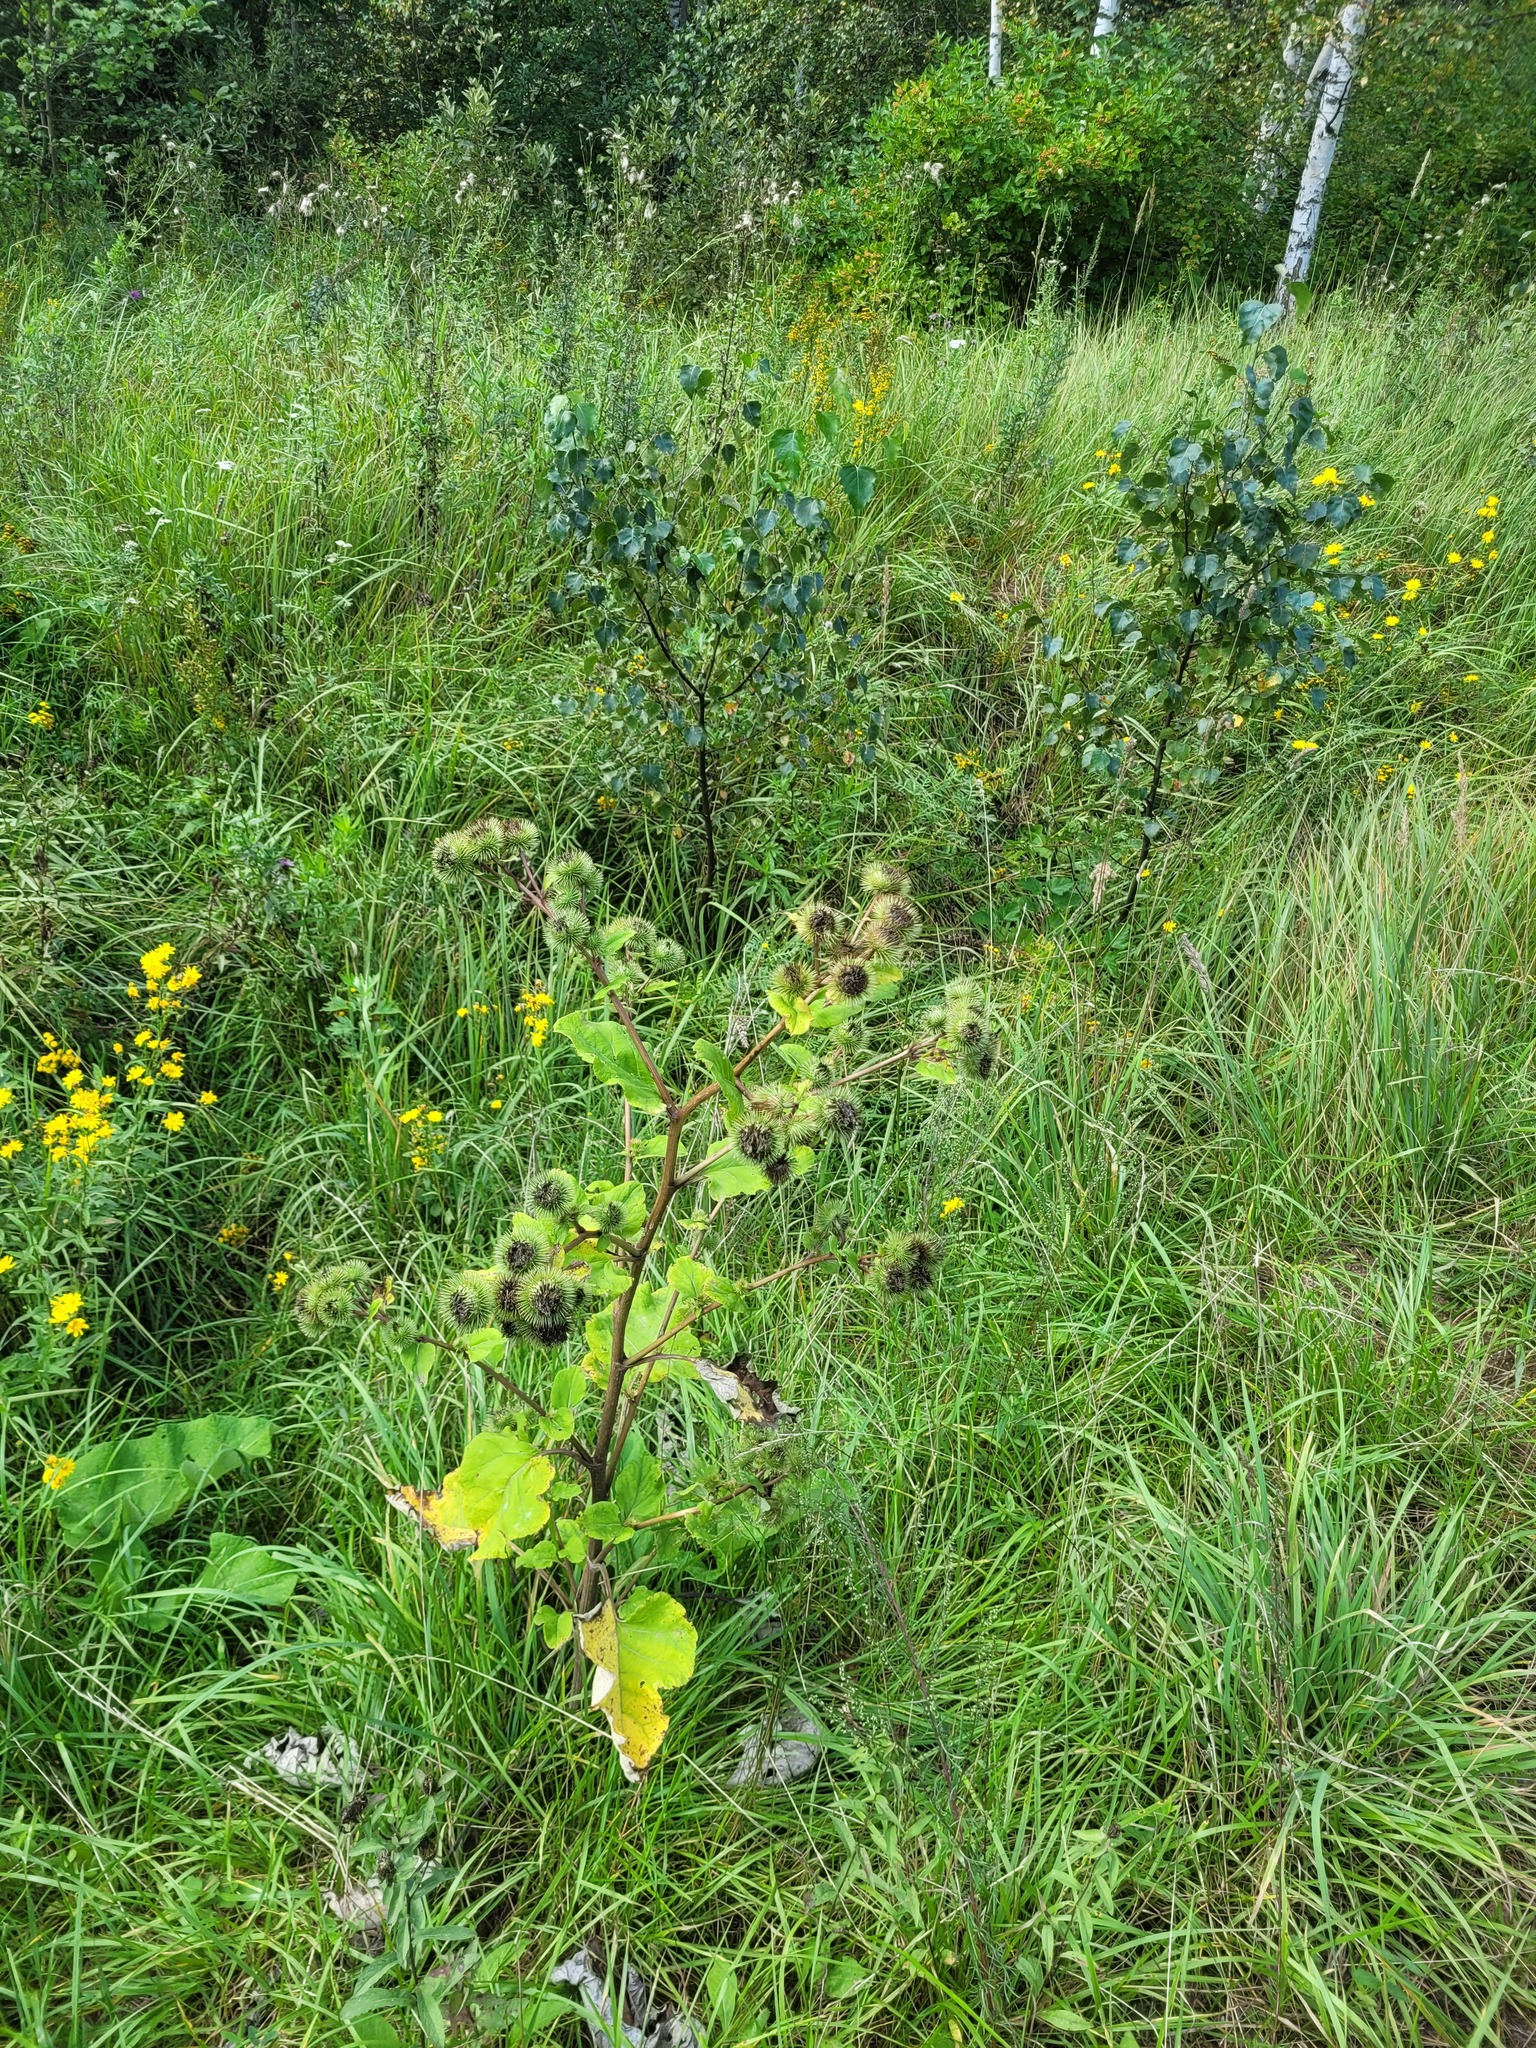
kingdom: Plantae
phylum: Tracheophyta
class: Magnoliopsida
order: Asterales
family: Asteraceae
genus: Arctium
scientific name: Arctium lappa
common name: Greater burdock
